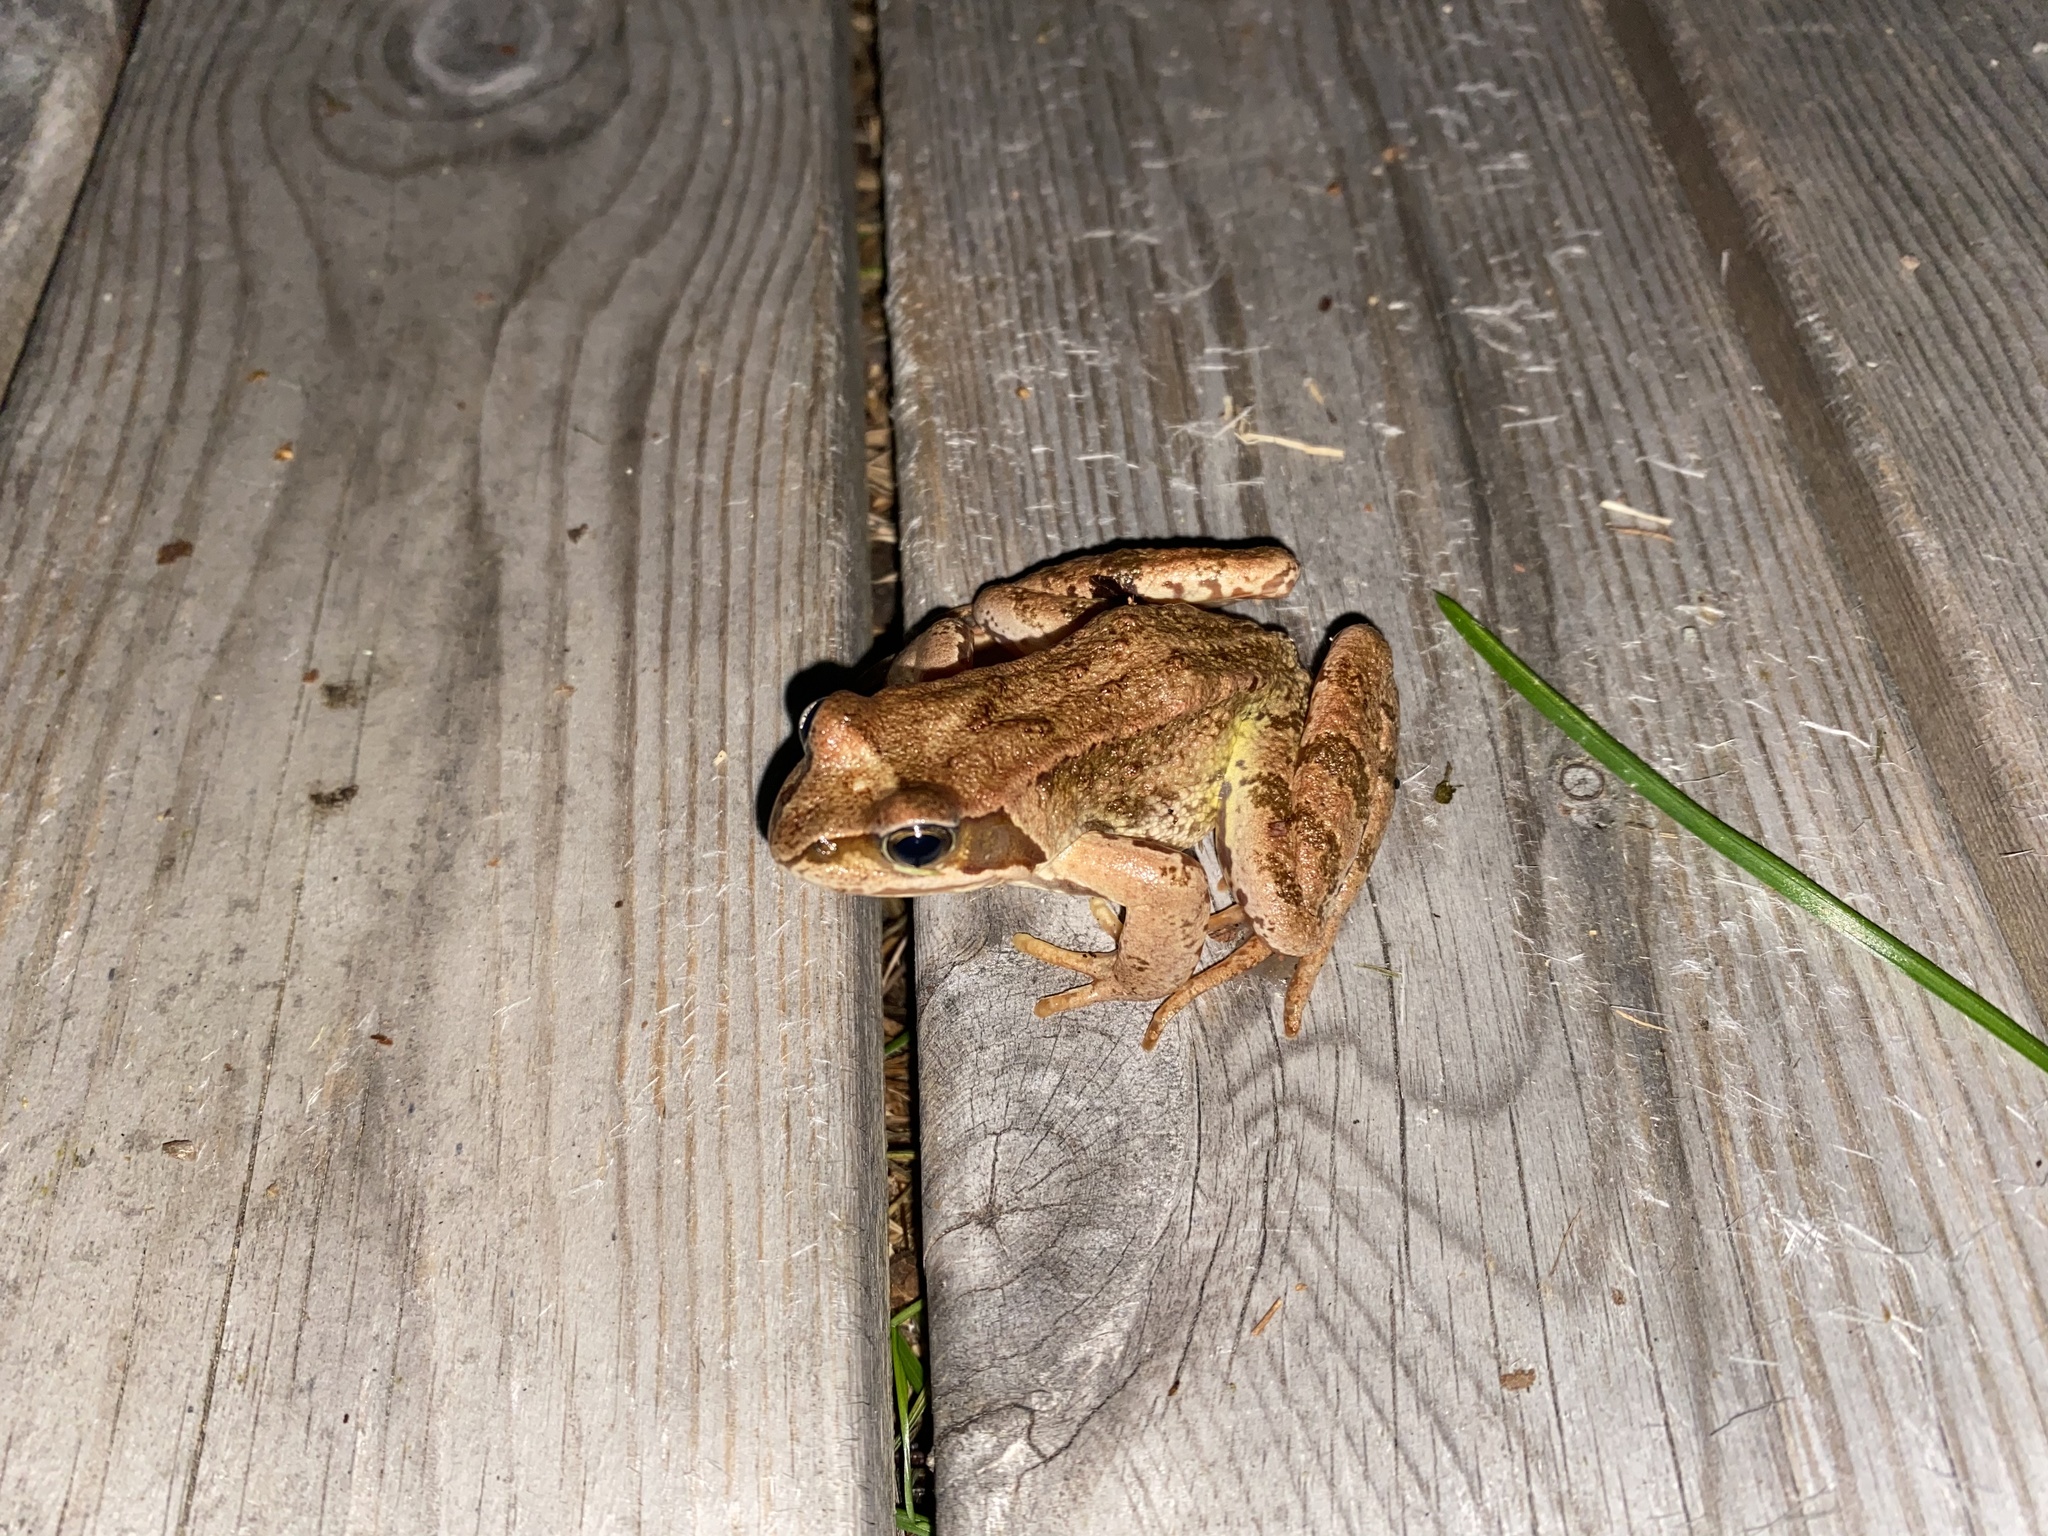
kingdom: Animalia
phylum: Chordata
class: Amphibia
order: Anura
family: Ranidae
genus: Rana
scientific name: Rana temporaria
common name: Common frog
